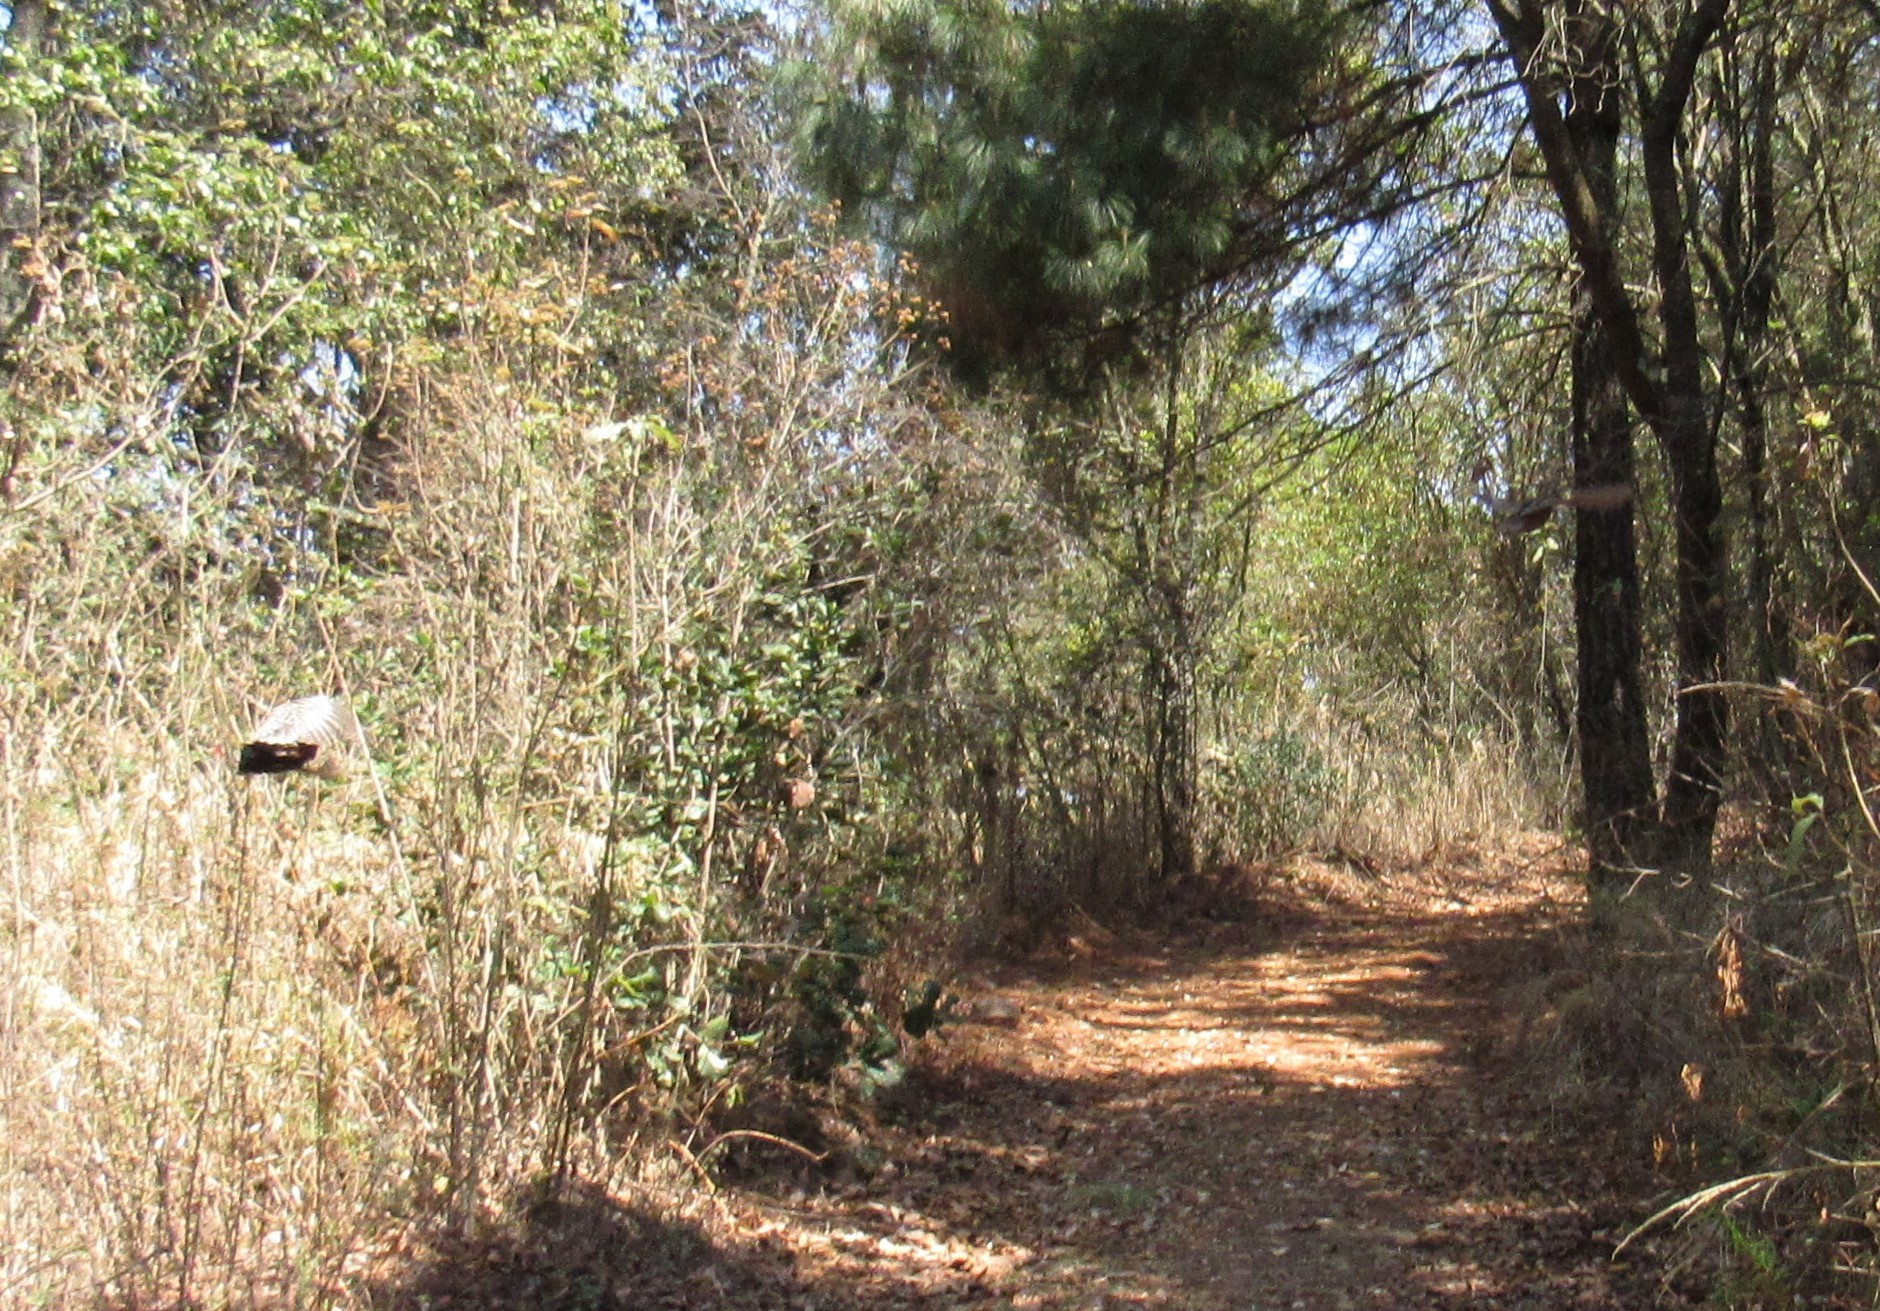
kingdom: Animalia
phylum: Chordata
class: Aves
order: Galliformes
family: Odontophoridae
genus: Cyrtonyx
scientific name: Cyrtonyx montezumae
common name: Montezuma quail
